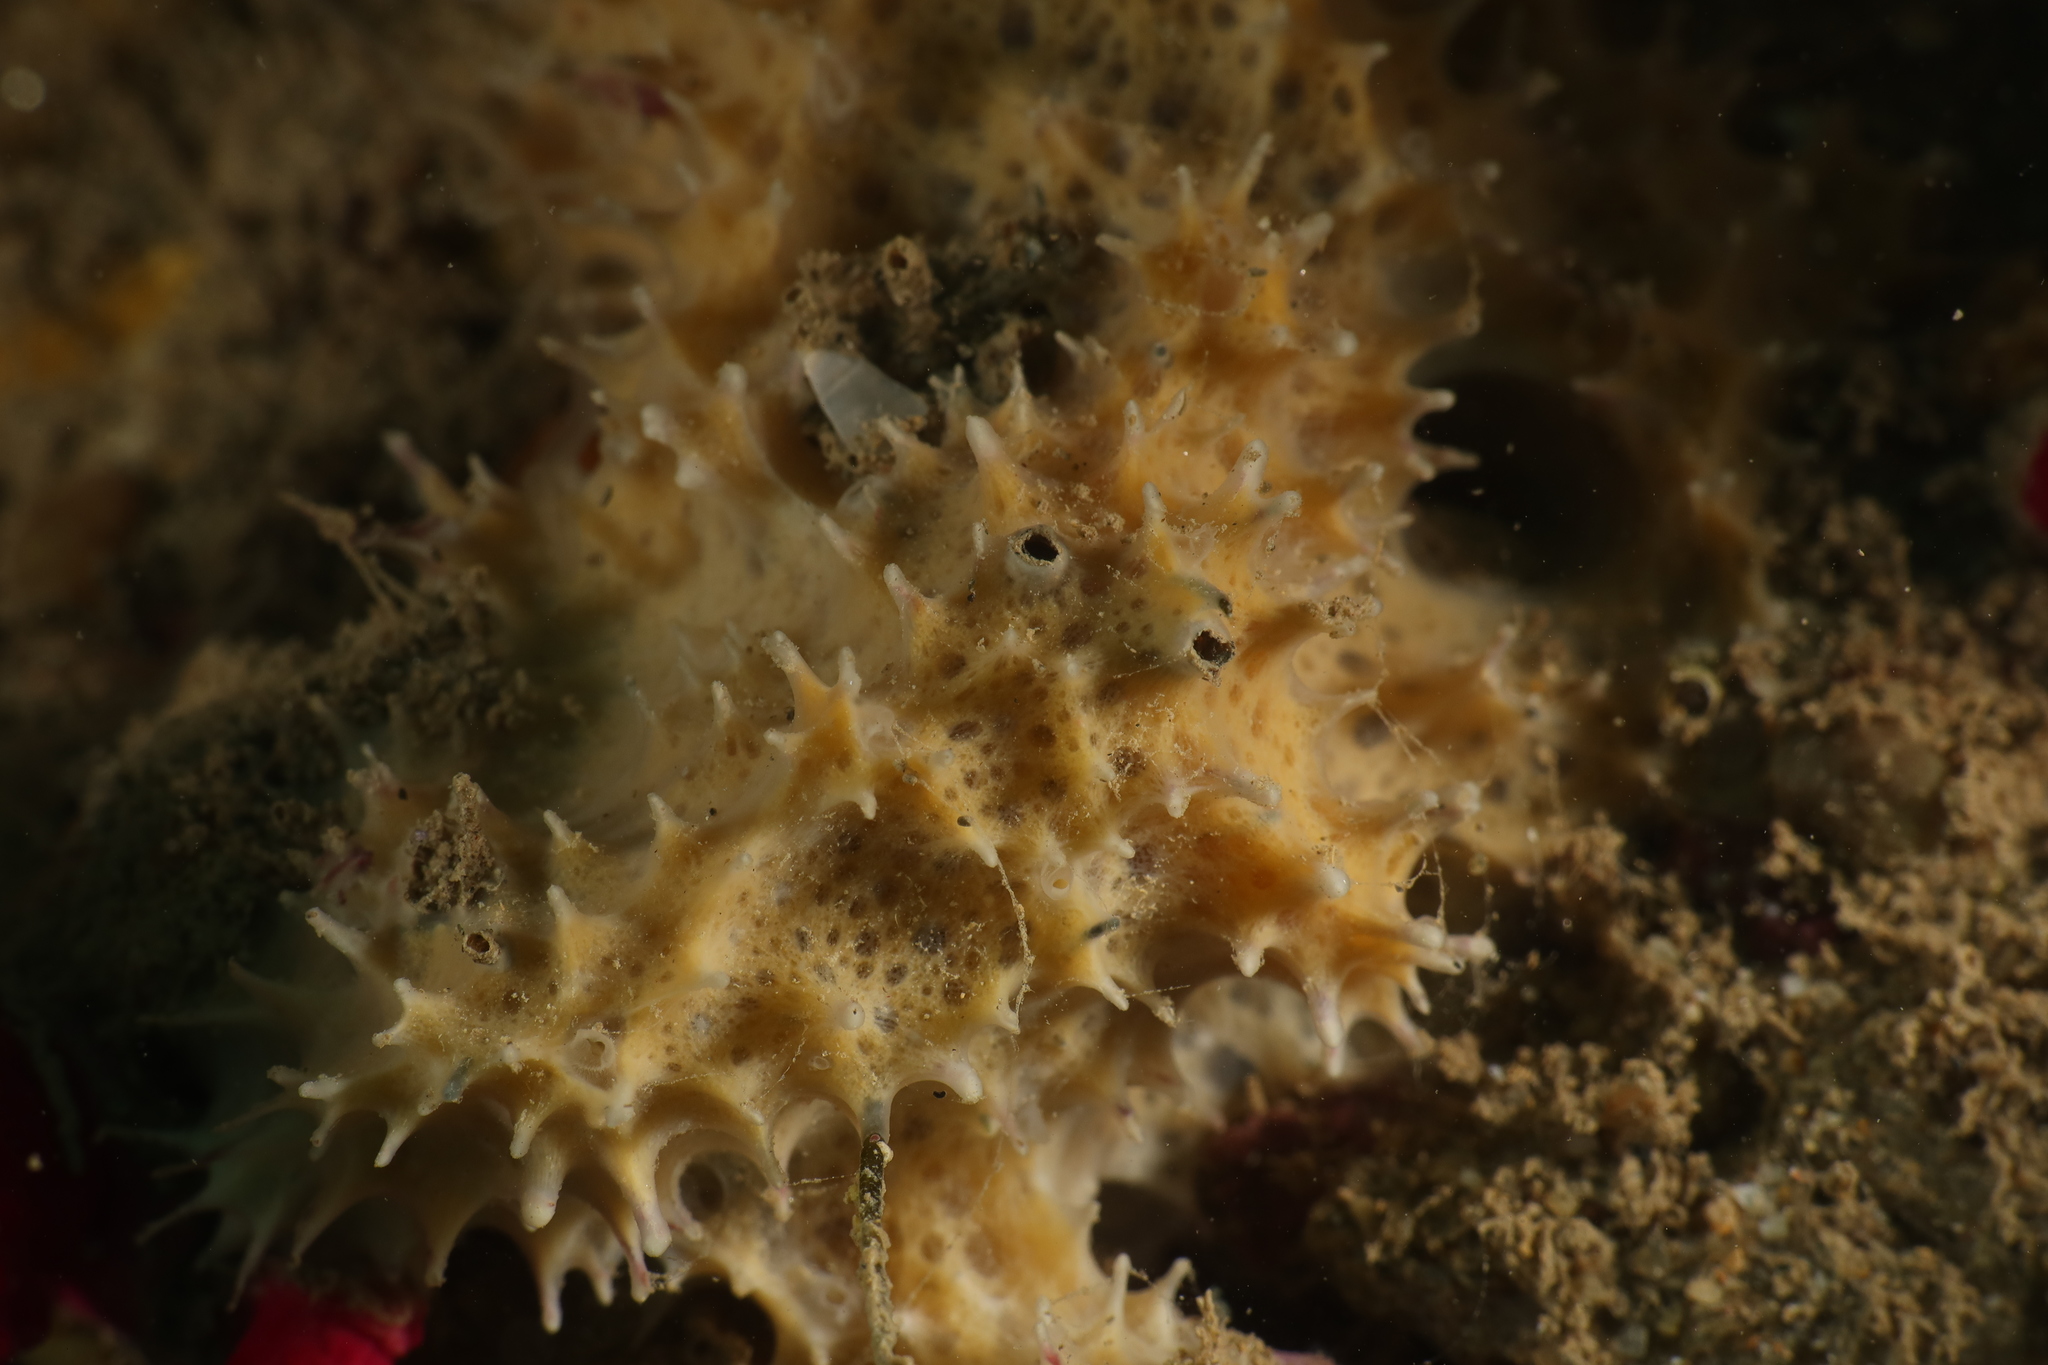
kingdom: Animalia
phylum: Porifera
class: Demospongiae
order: Dictyoceratida
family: Dysideidae
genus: Pleraplysilla
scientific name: Pleraplysilla spinifera
